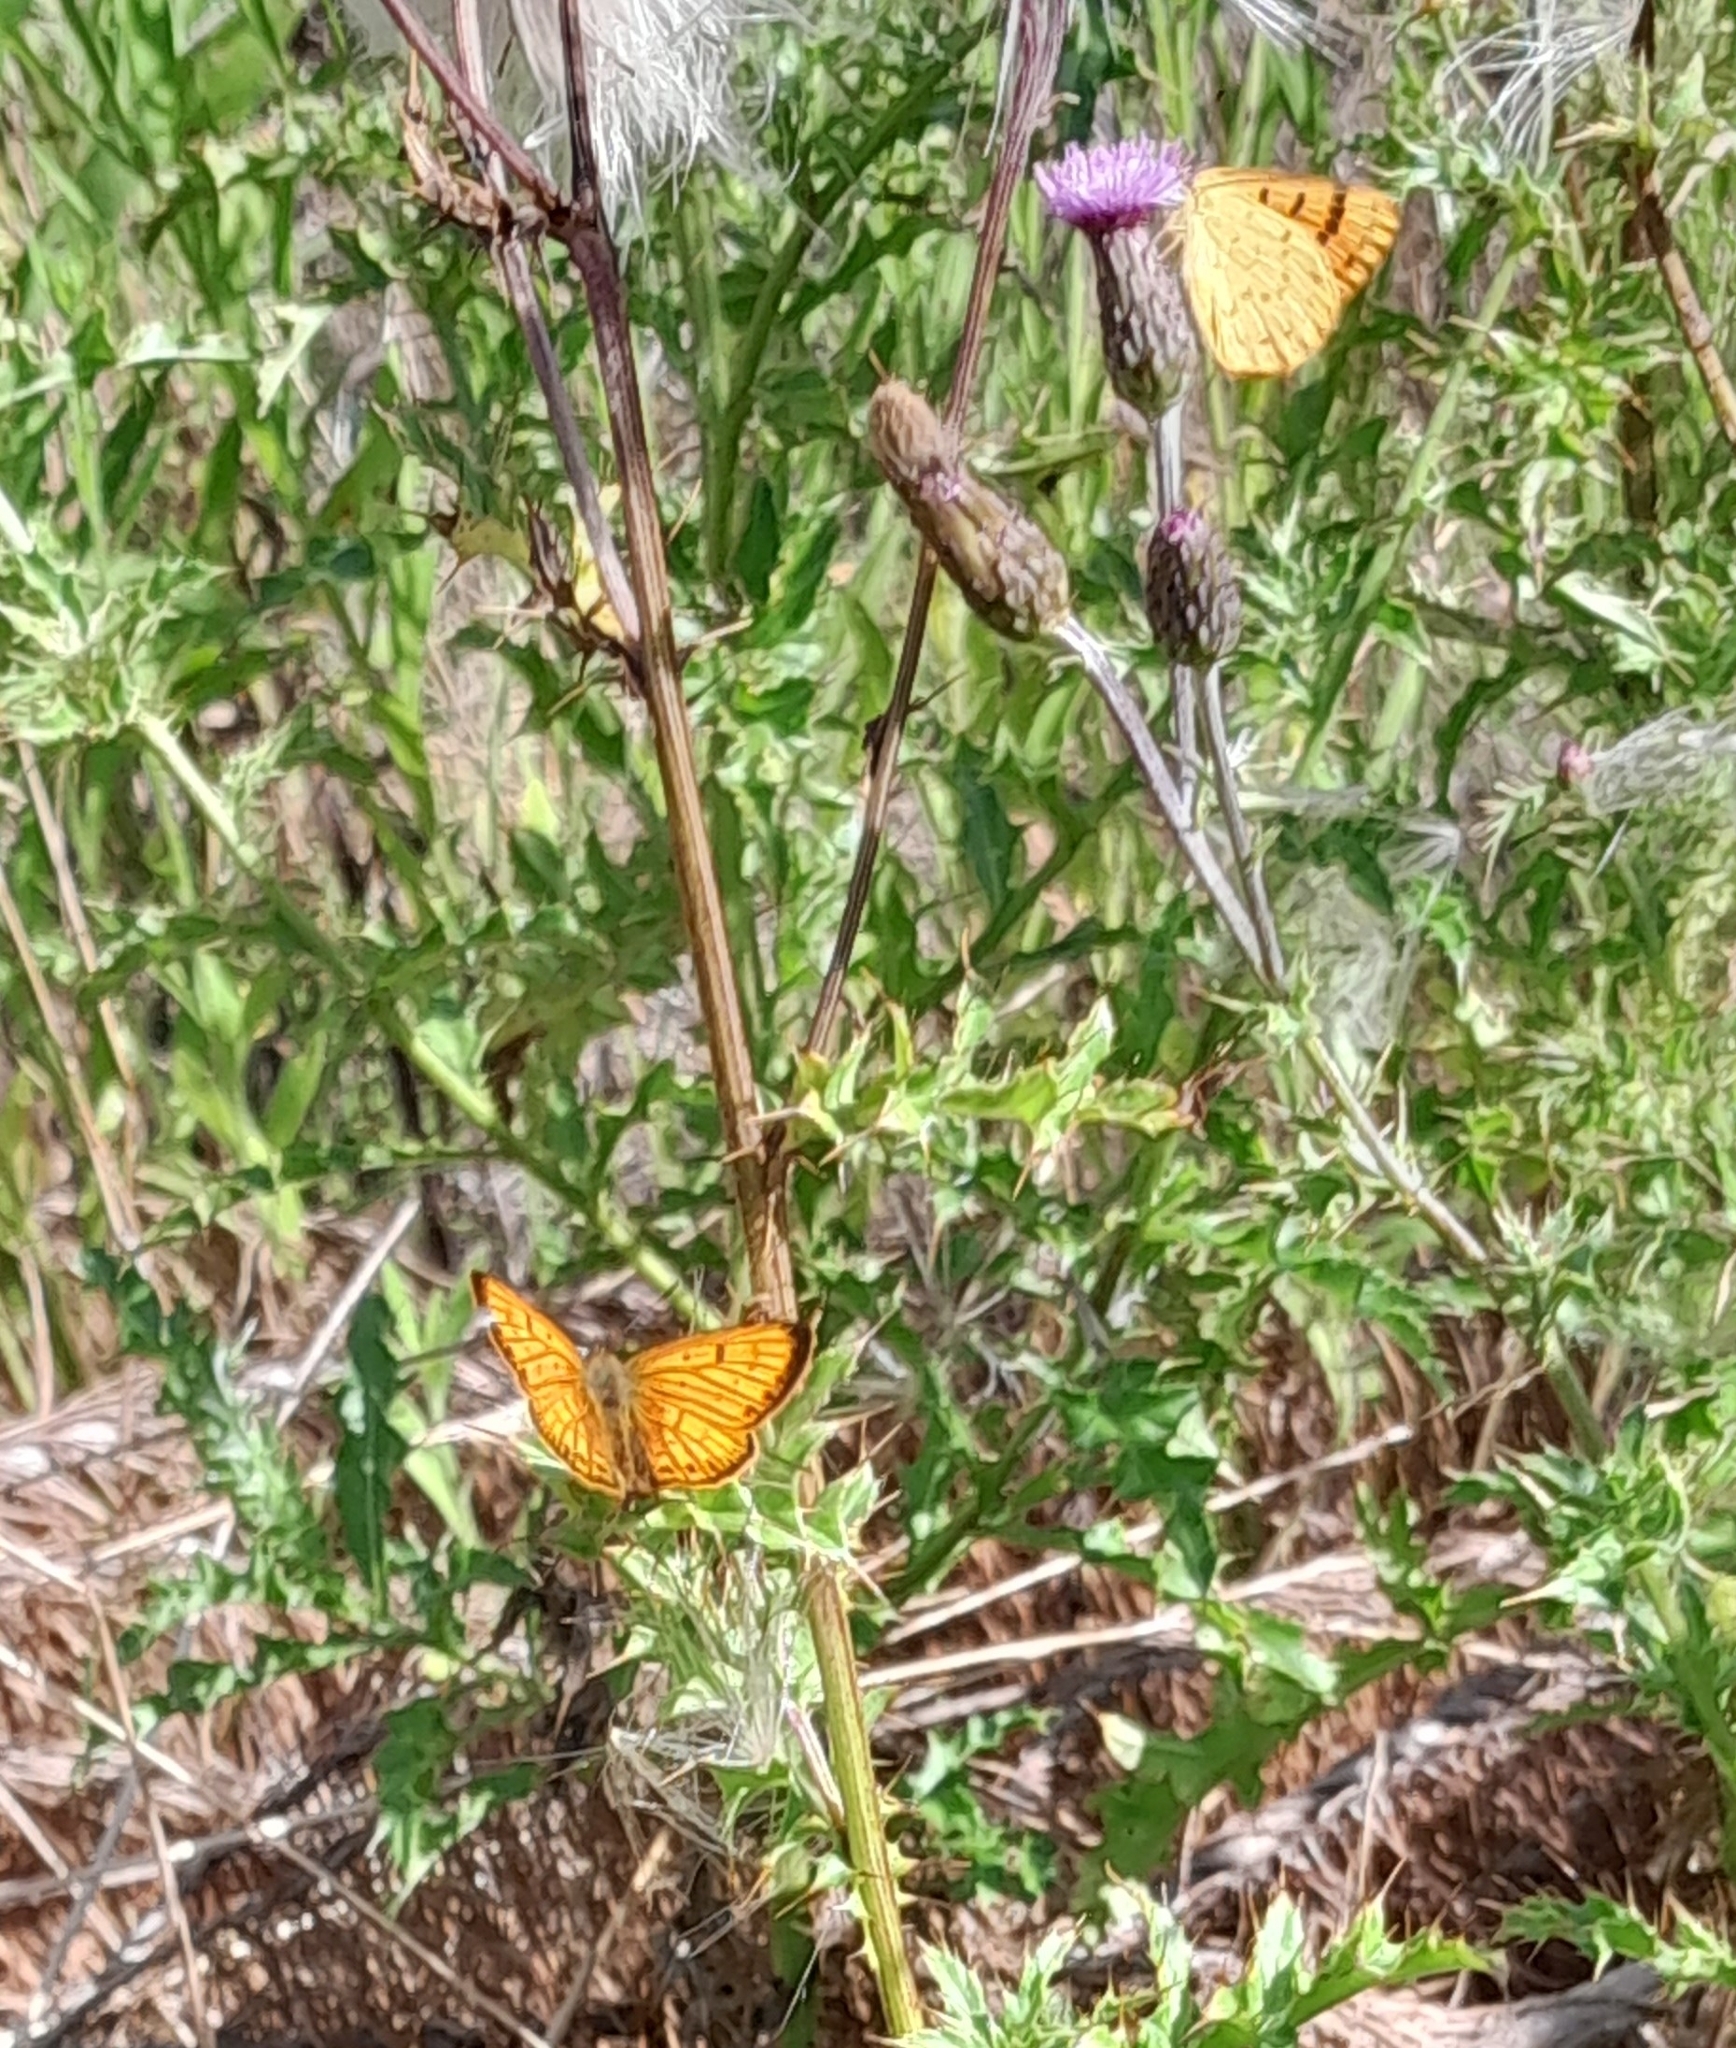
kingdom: Animalia
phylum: Arthropoda
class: Insecta
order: Lepidoptera
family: Lycaenidae
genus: Lycaena
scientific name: Lycaena salustius
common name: North island coastal copper
